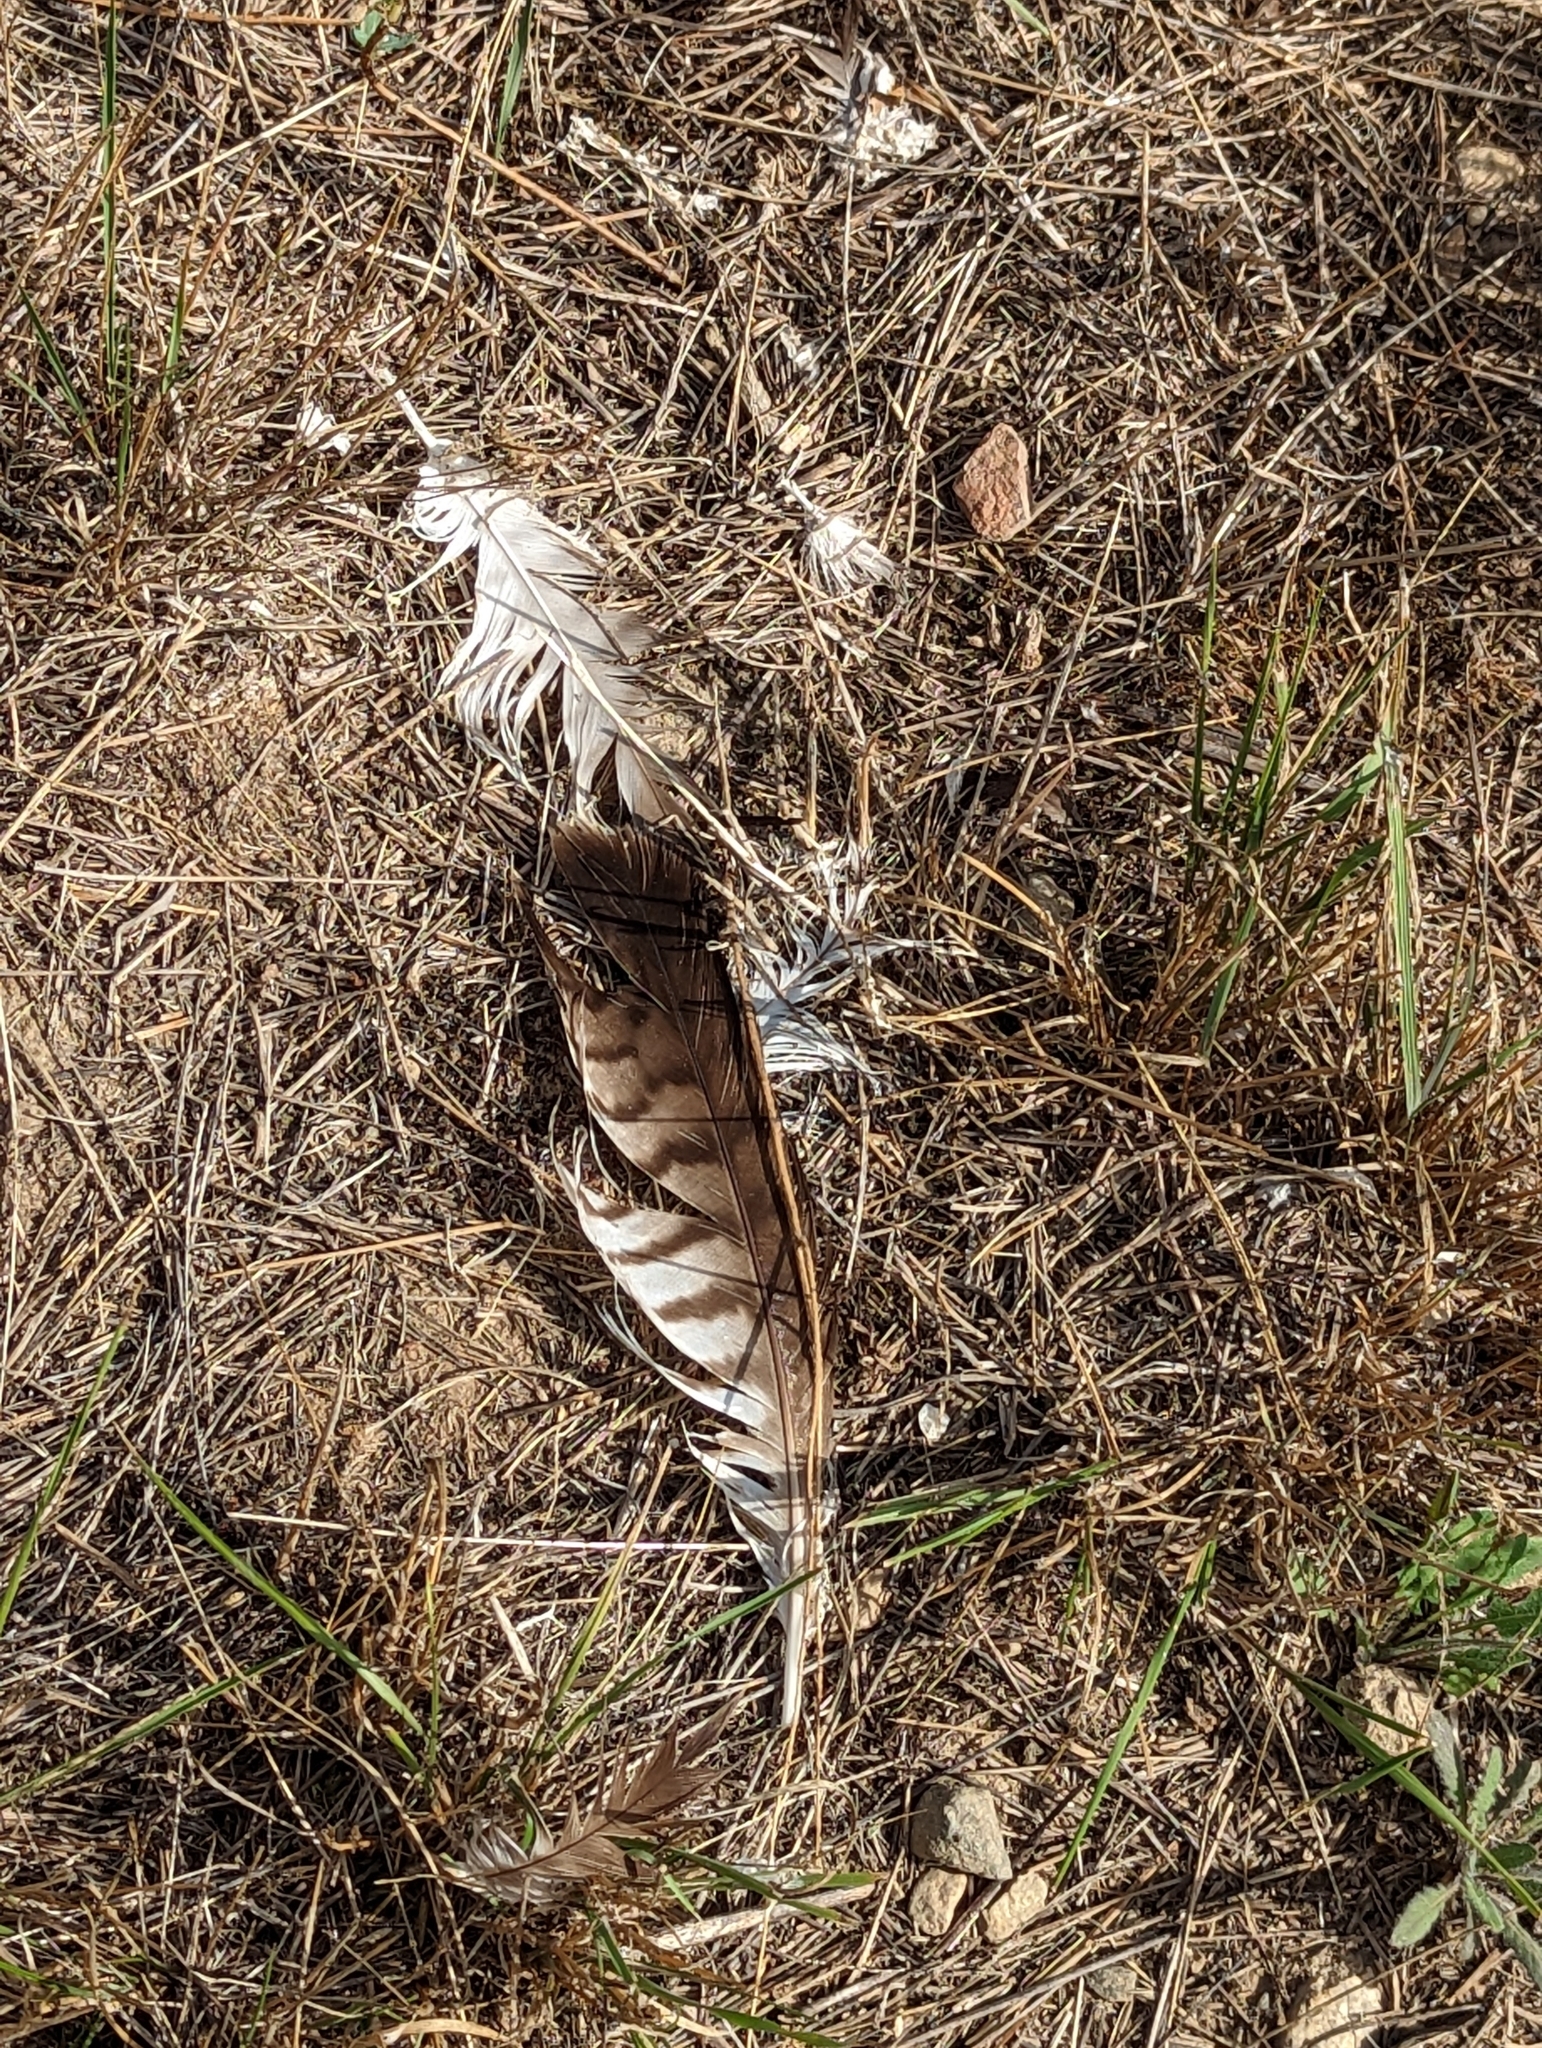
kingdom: Animalia
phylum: Chordata
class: Aves
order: Accipitriformes
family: Accipitridae
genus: Buteo
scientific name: Buteo jamaicensis
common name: Red-tailed hawk
